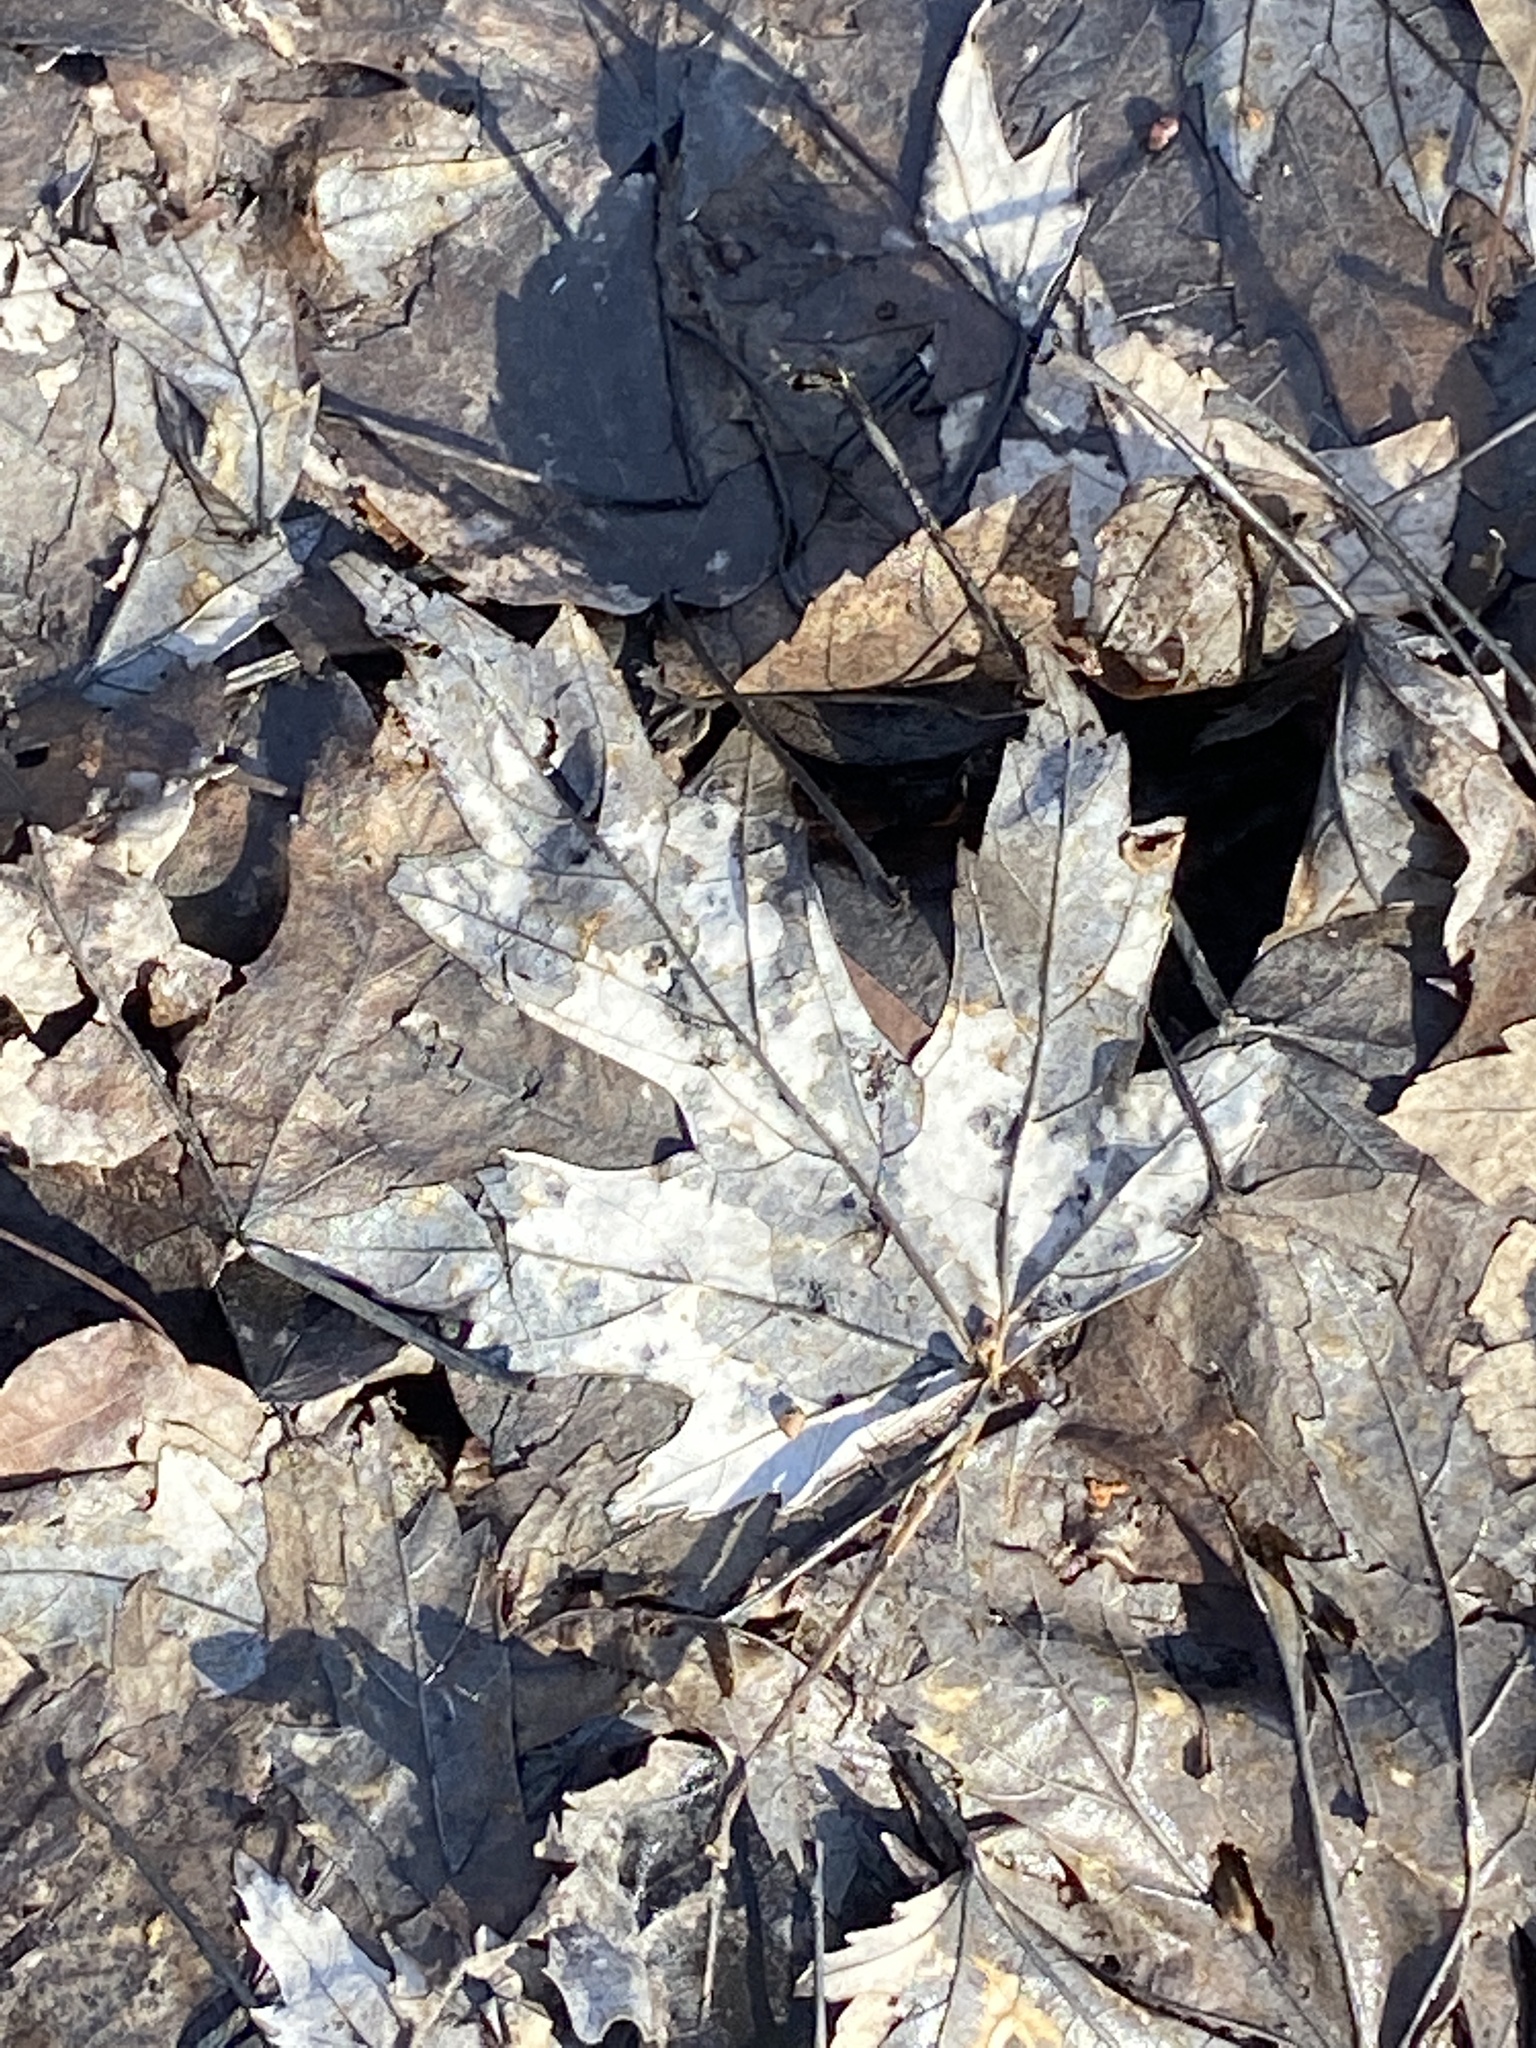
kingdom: Plantae
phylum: Tracheophyta
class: Magnoliopsida
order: Sapindales
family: Sapindaceae
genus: Acer
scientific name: Acer saccharinum
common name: Silver maple
